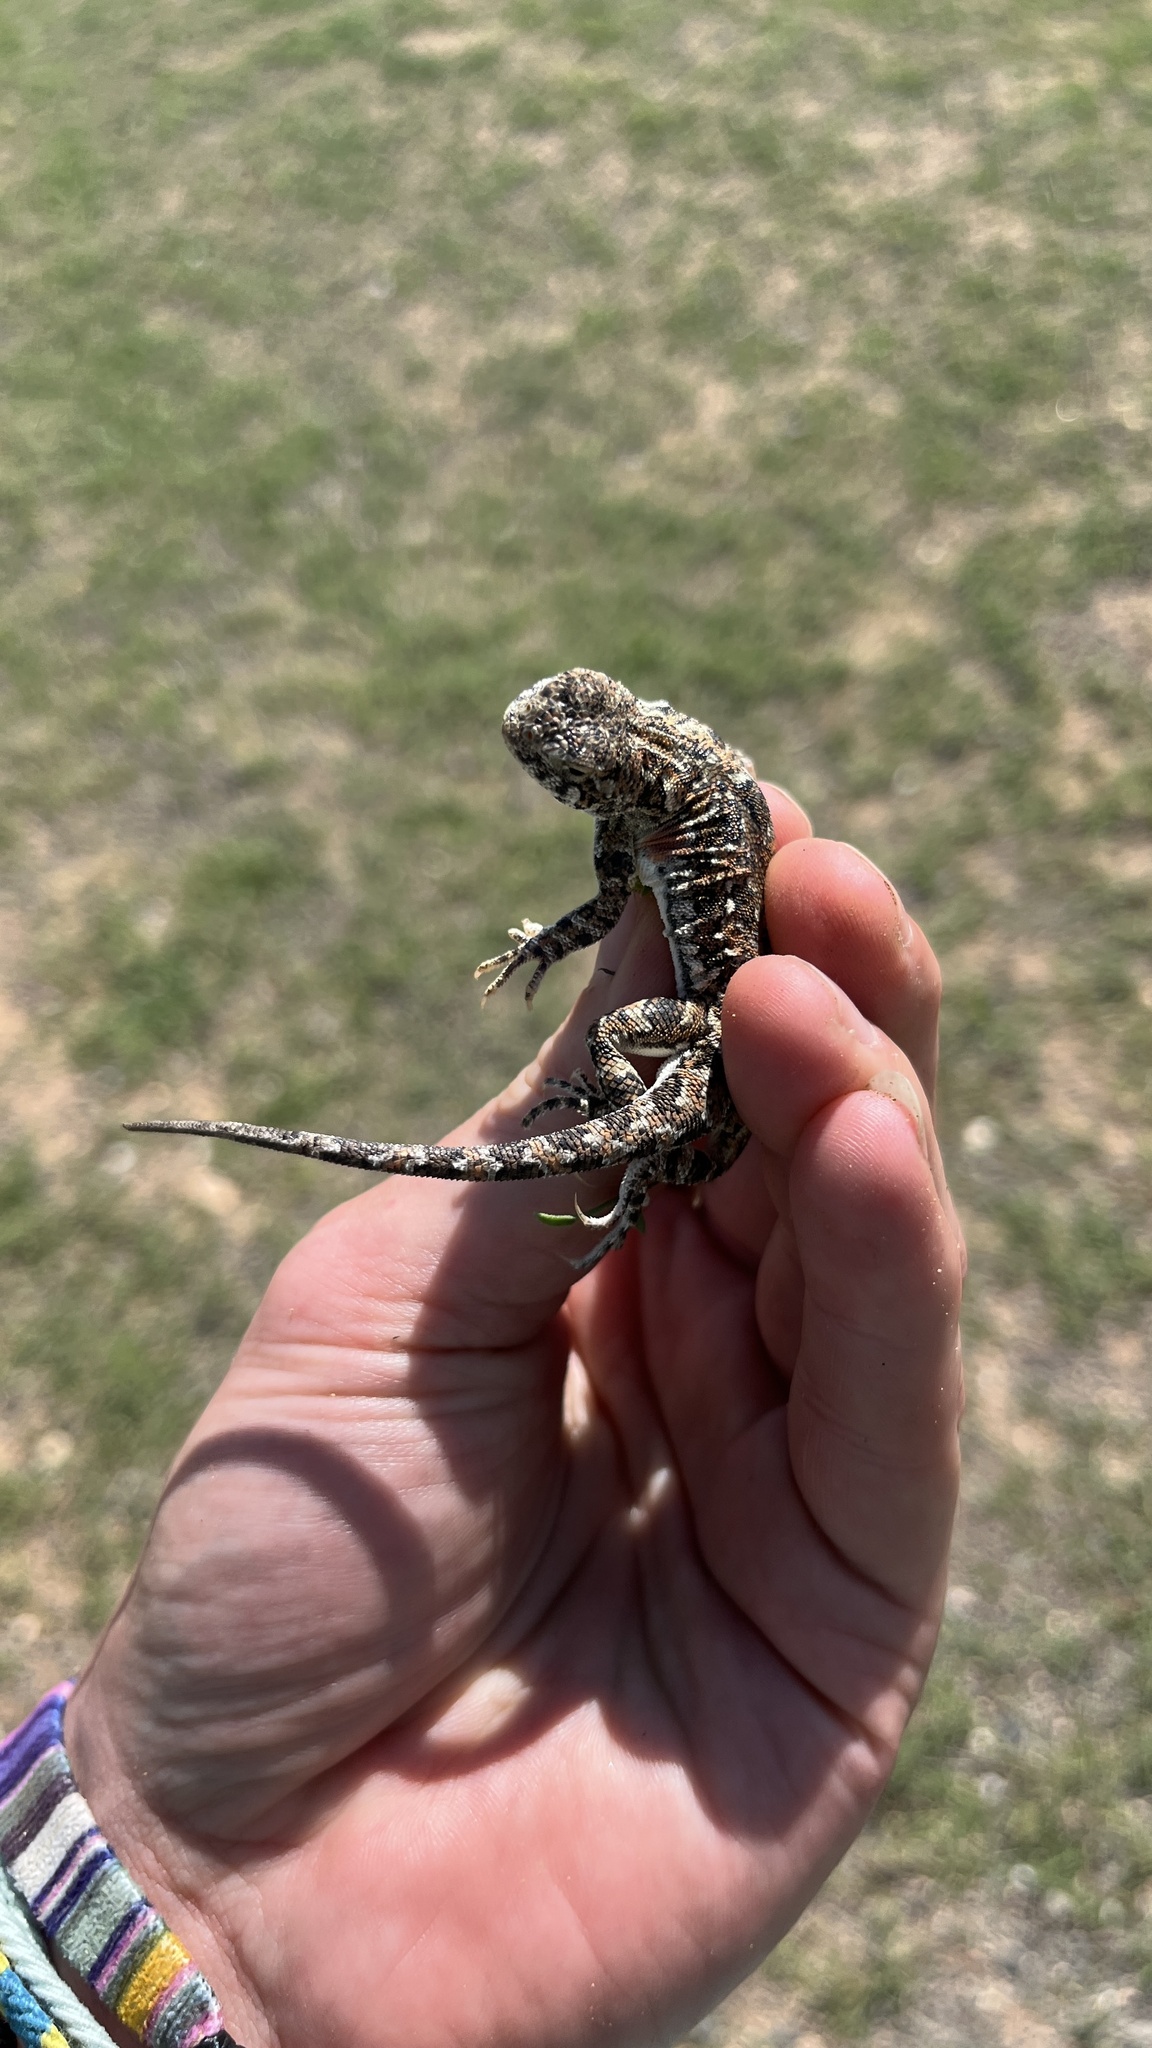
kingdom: Animalia
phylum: Chordata
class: Squamata
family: Agamidae
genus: Phrynocephalus
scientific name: Phrynocephalus versicolor
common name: Tuvan toad-headed agama
